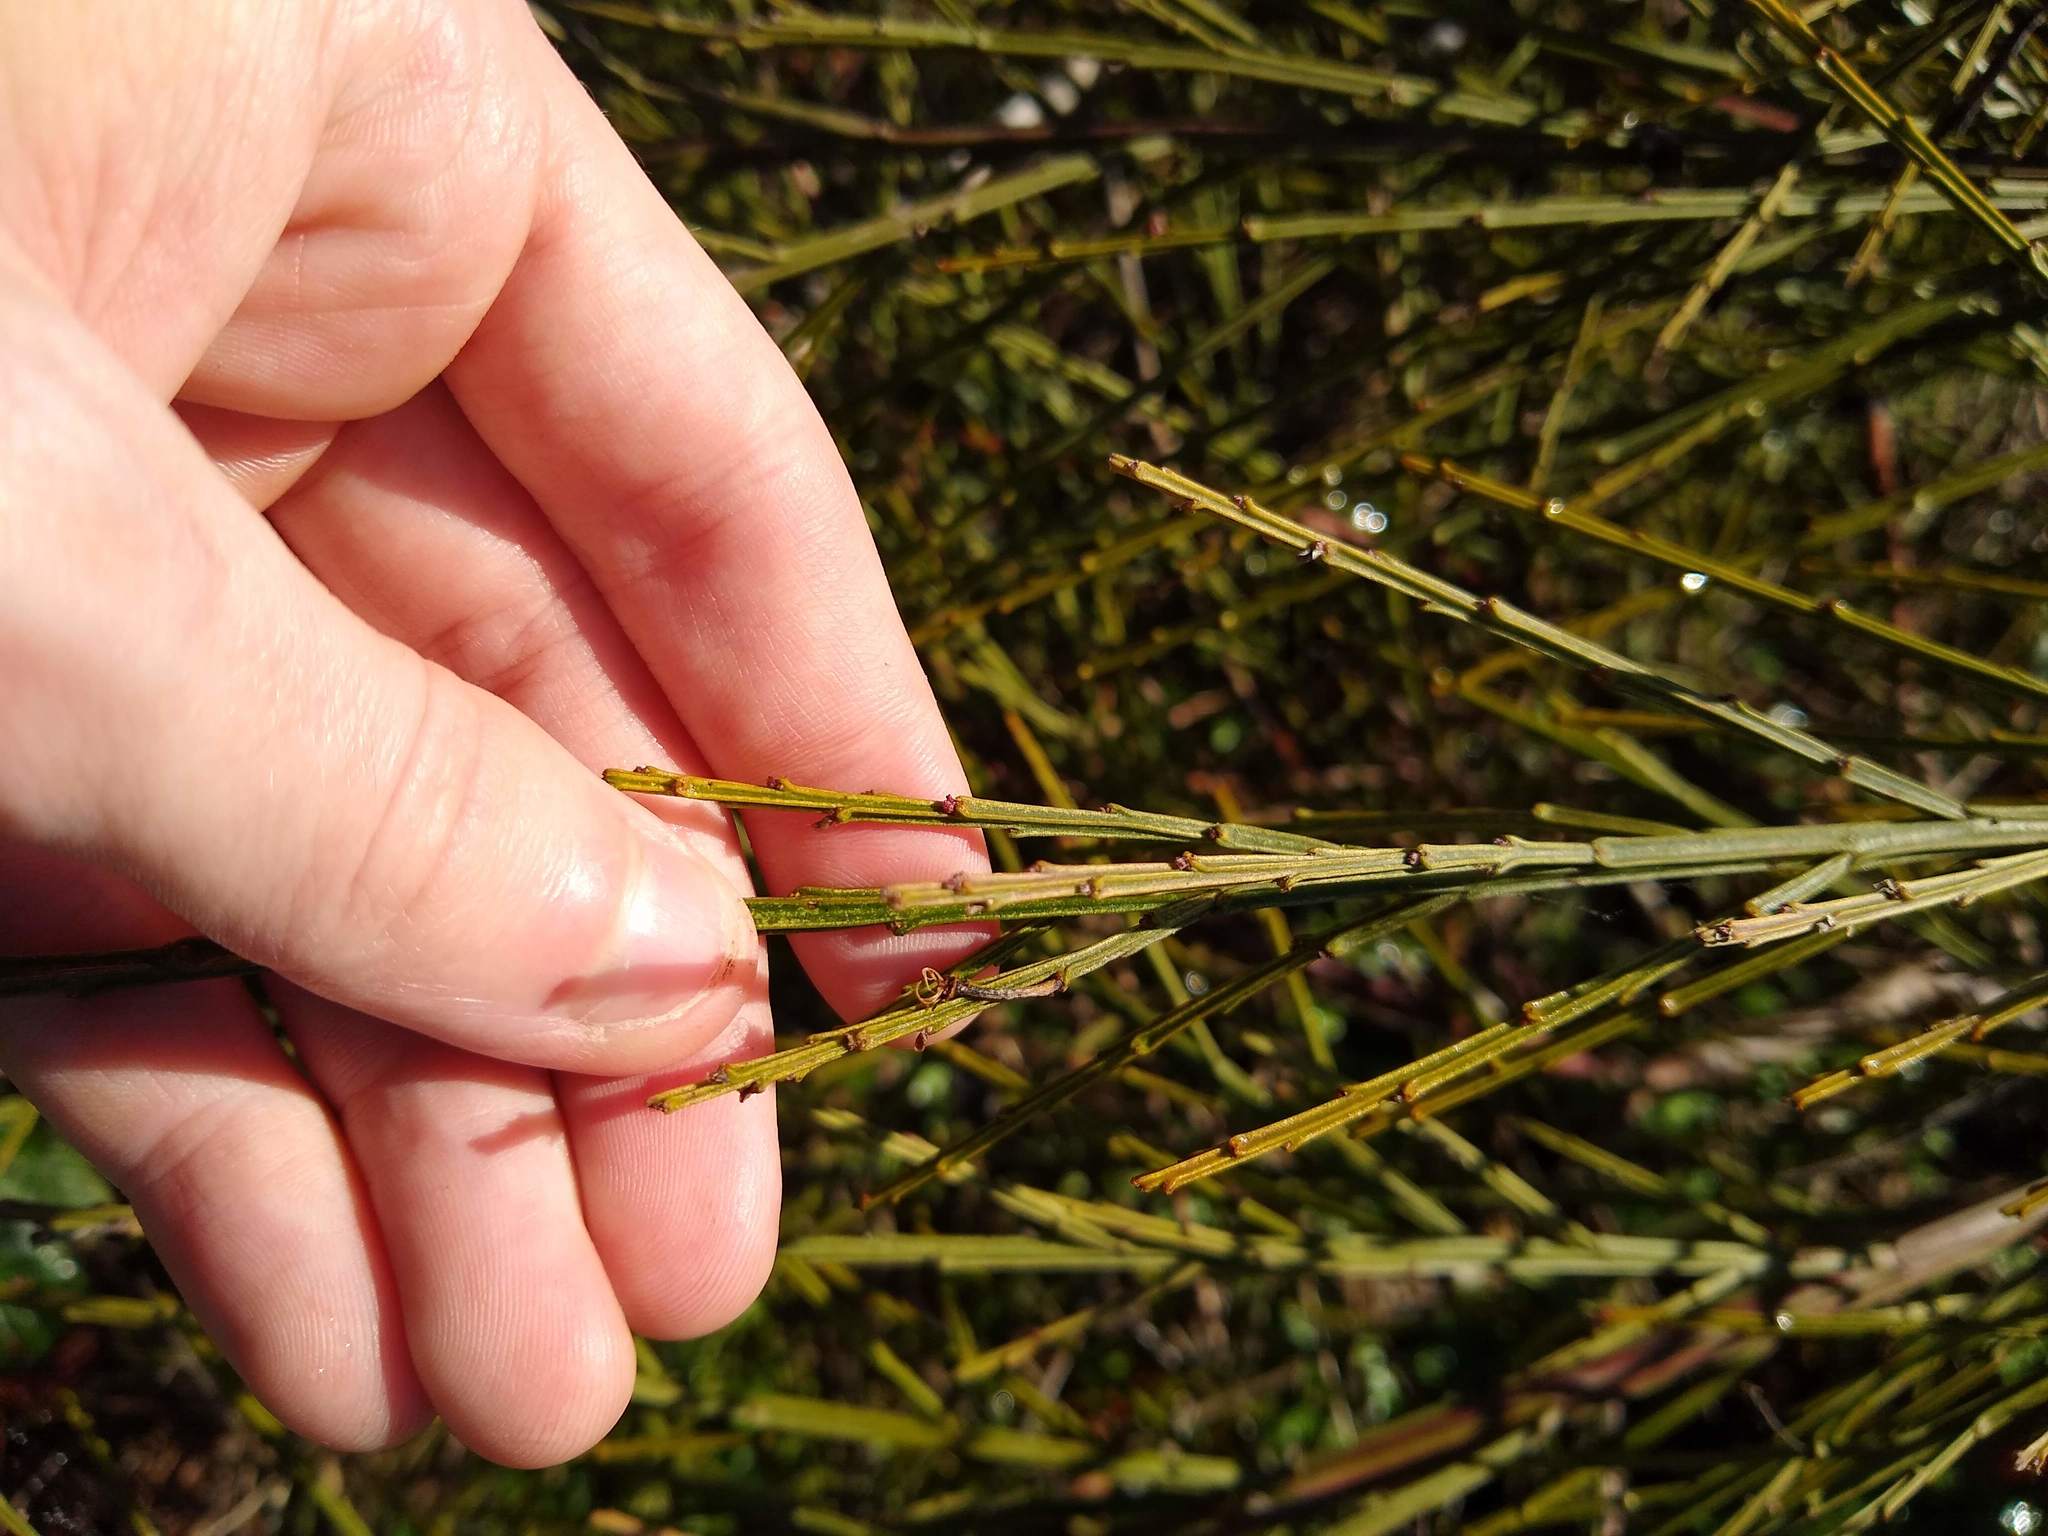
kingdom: Plantae
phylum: Tracheophyta
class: Magnoliopsida
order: Fabales
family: Fabaceae
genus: Cytisus
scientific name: Cytisus scoparius
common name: Scotch broom
